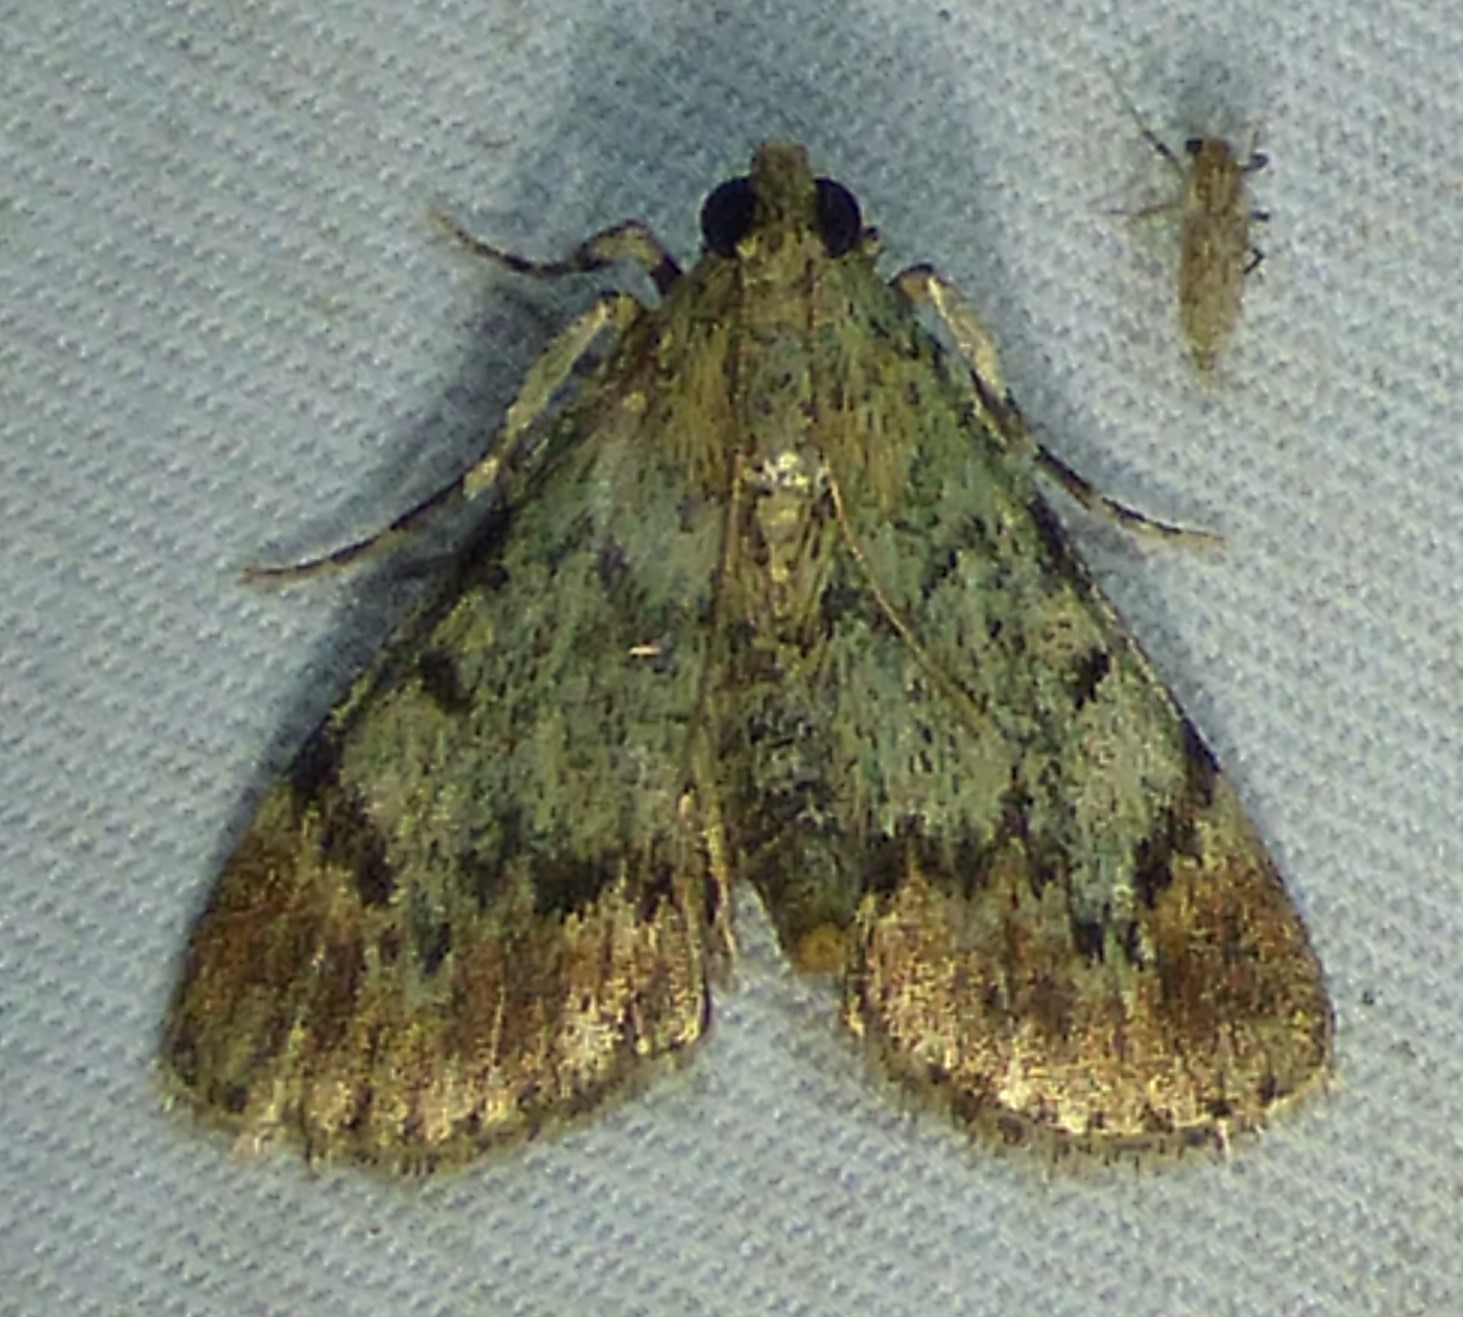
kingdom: Animalia
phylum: Arthropoda
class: Insecta
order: Lepidoptera
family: Pyralidae
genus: Epipaschia
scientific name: Epipaschia superatalis
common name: Dimorphic macalla moth
